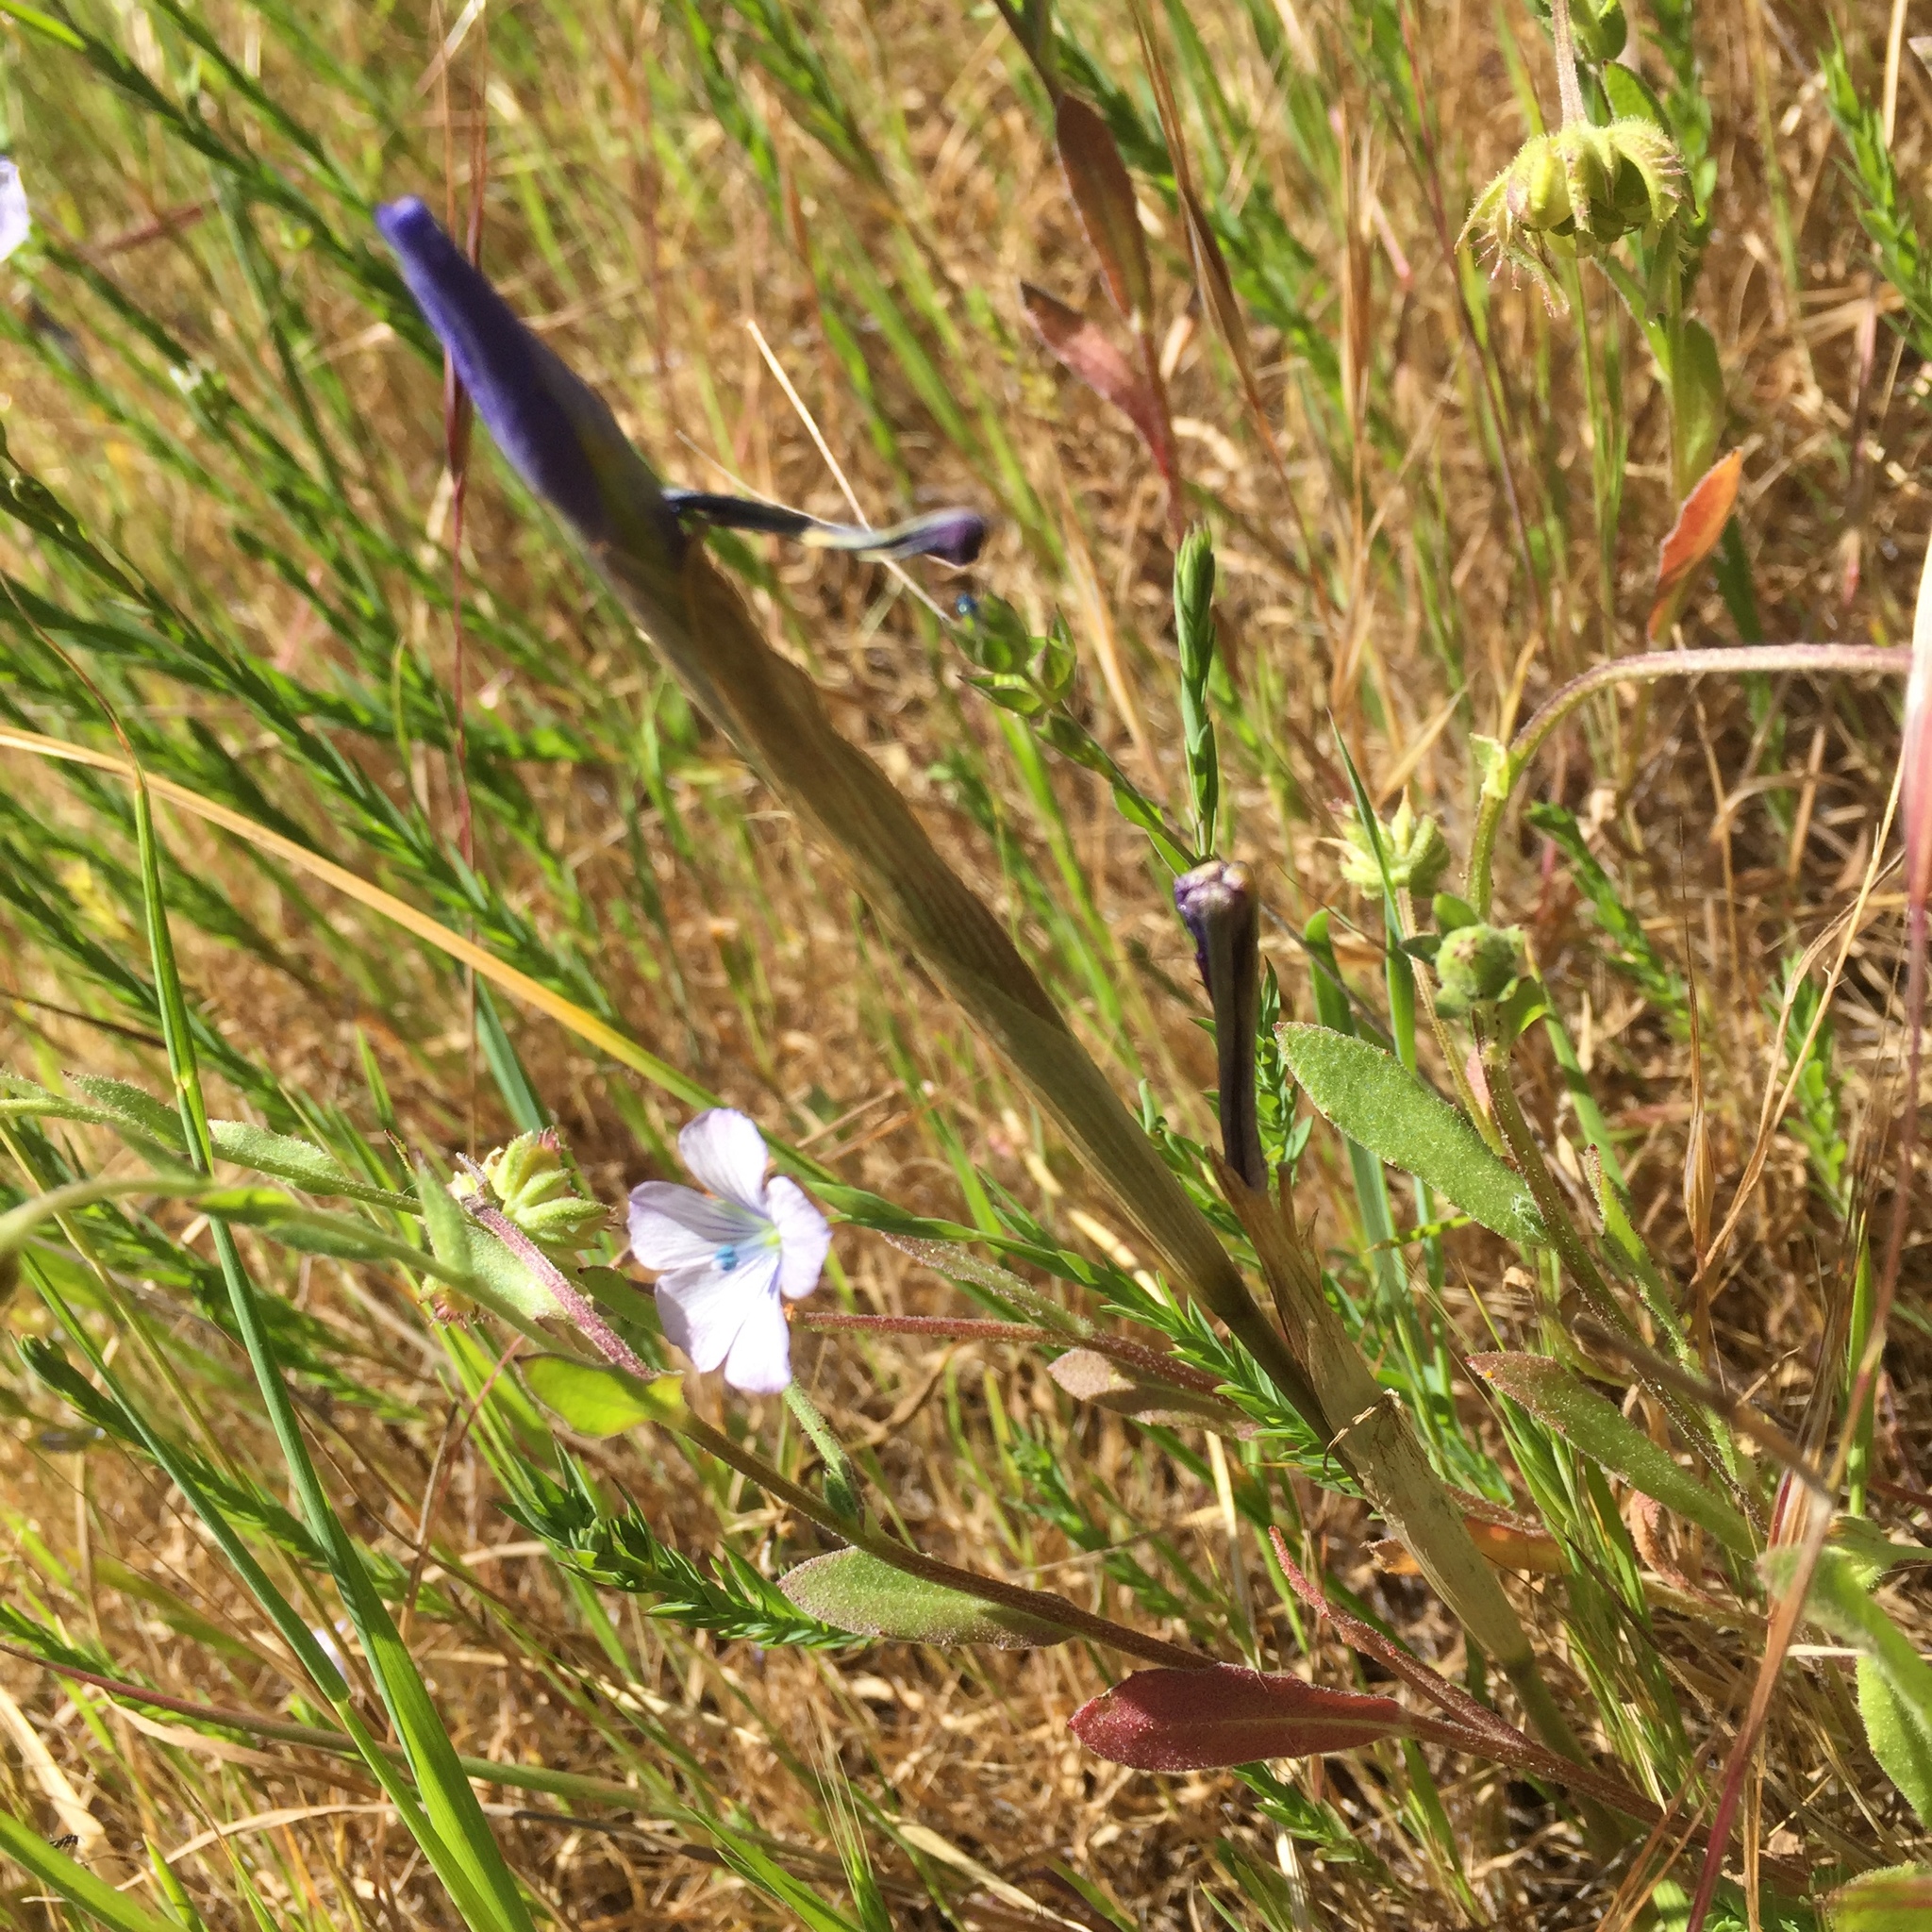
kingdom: Plantae
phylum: Tracheophyta
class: Magnoliopsida
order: Malpighiales
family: Linaceae
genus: Linum
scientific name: Linum bienne
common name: Pale flax
